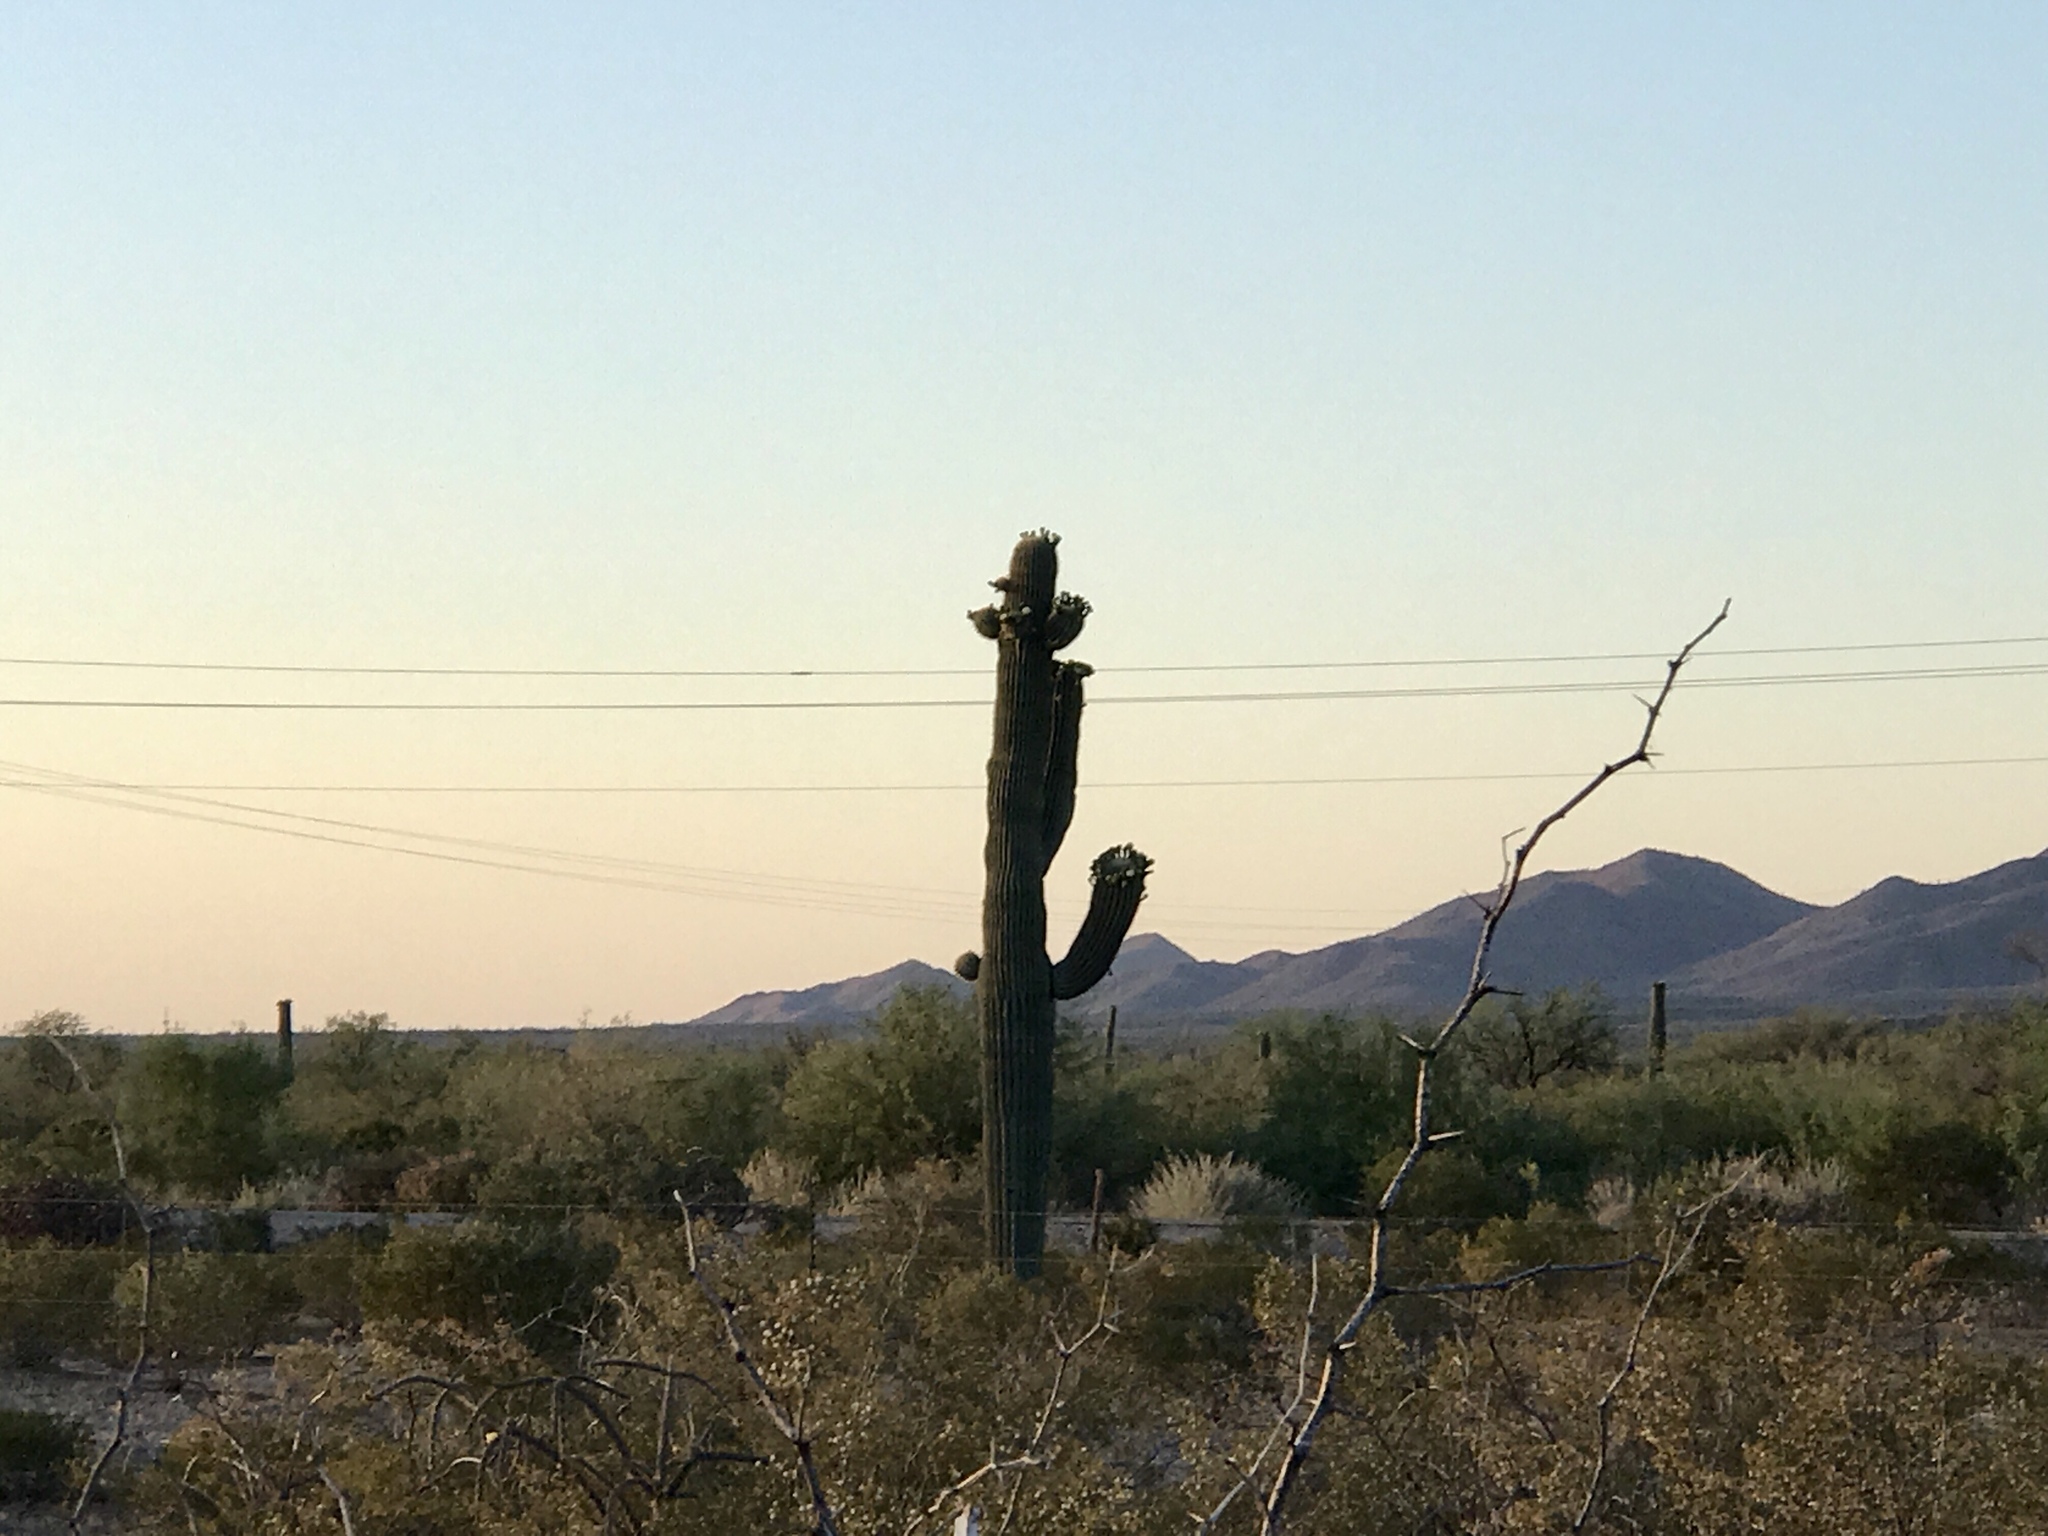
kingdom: Plantae
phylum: Tracheophyta
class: Magnoliopsida
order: Caryophyllales
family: Cactaceae
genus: Carnegiea
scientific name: Carnegiea gigantea
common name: Saguaro
